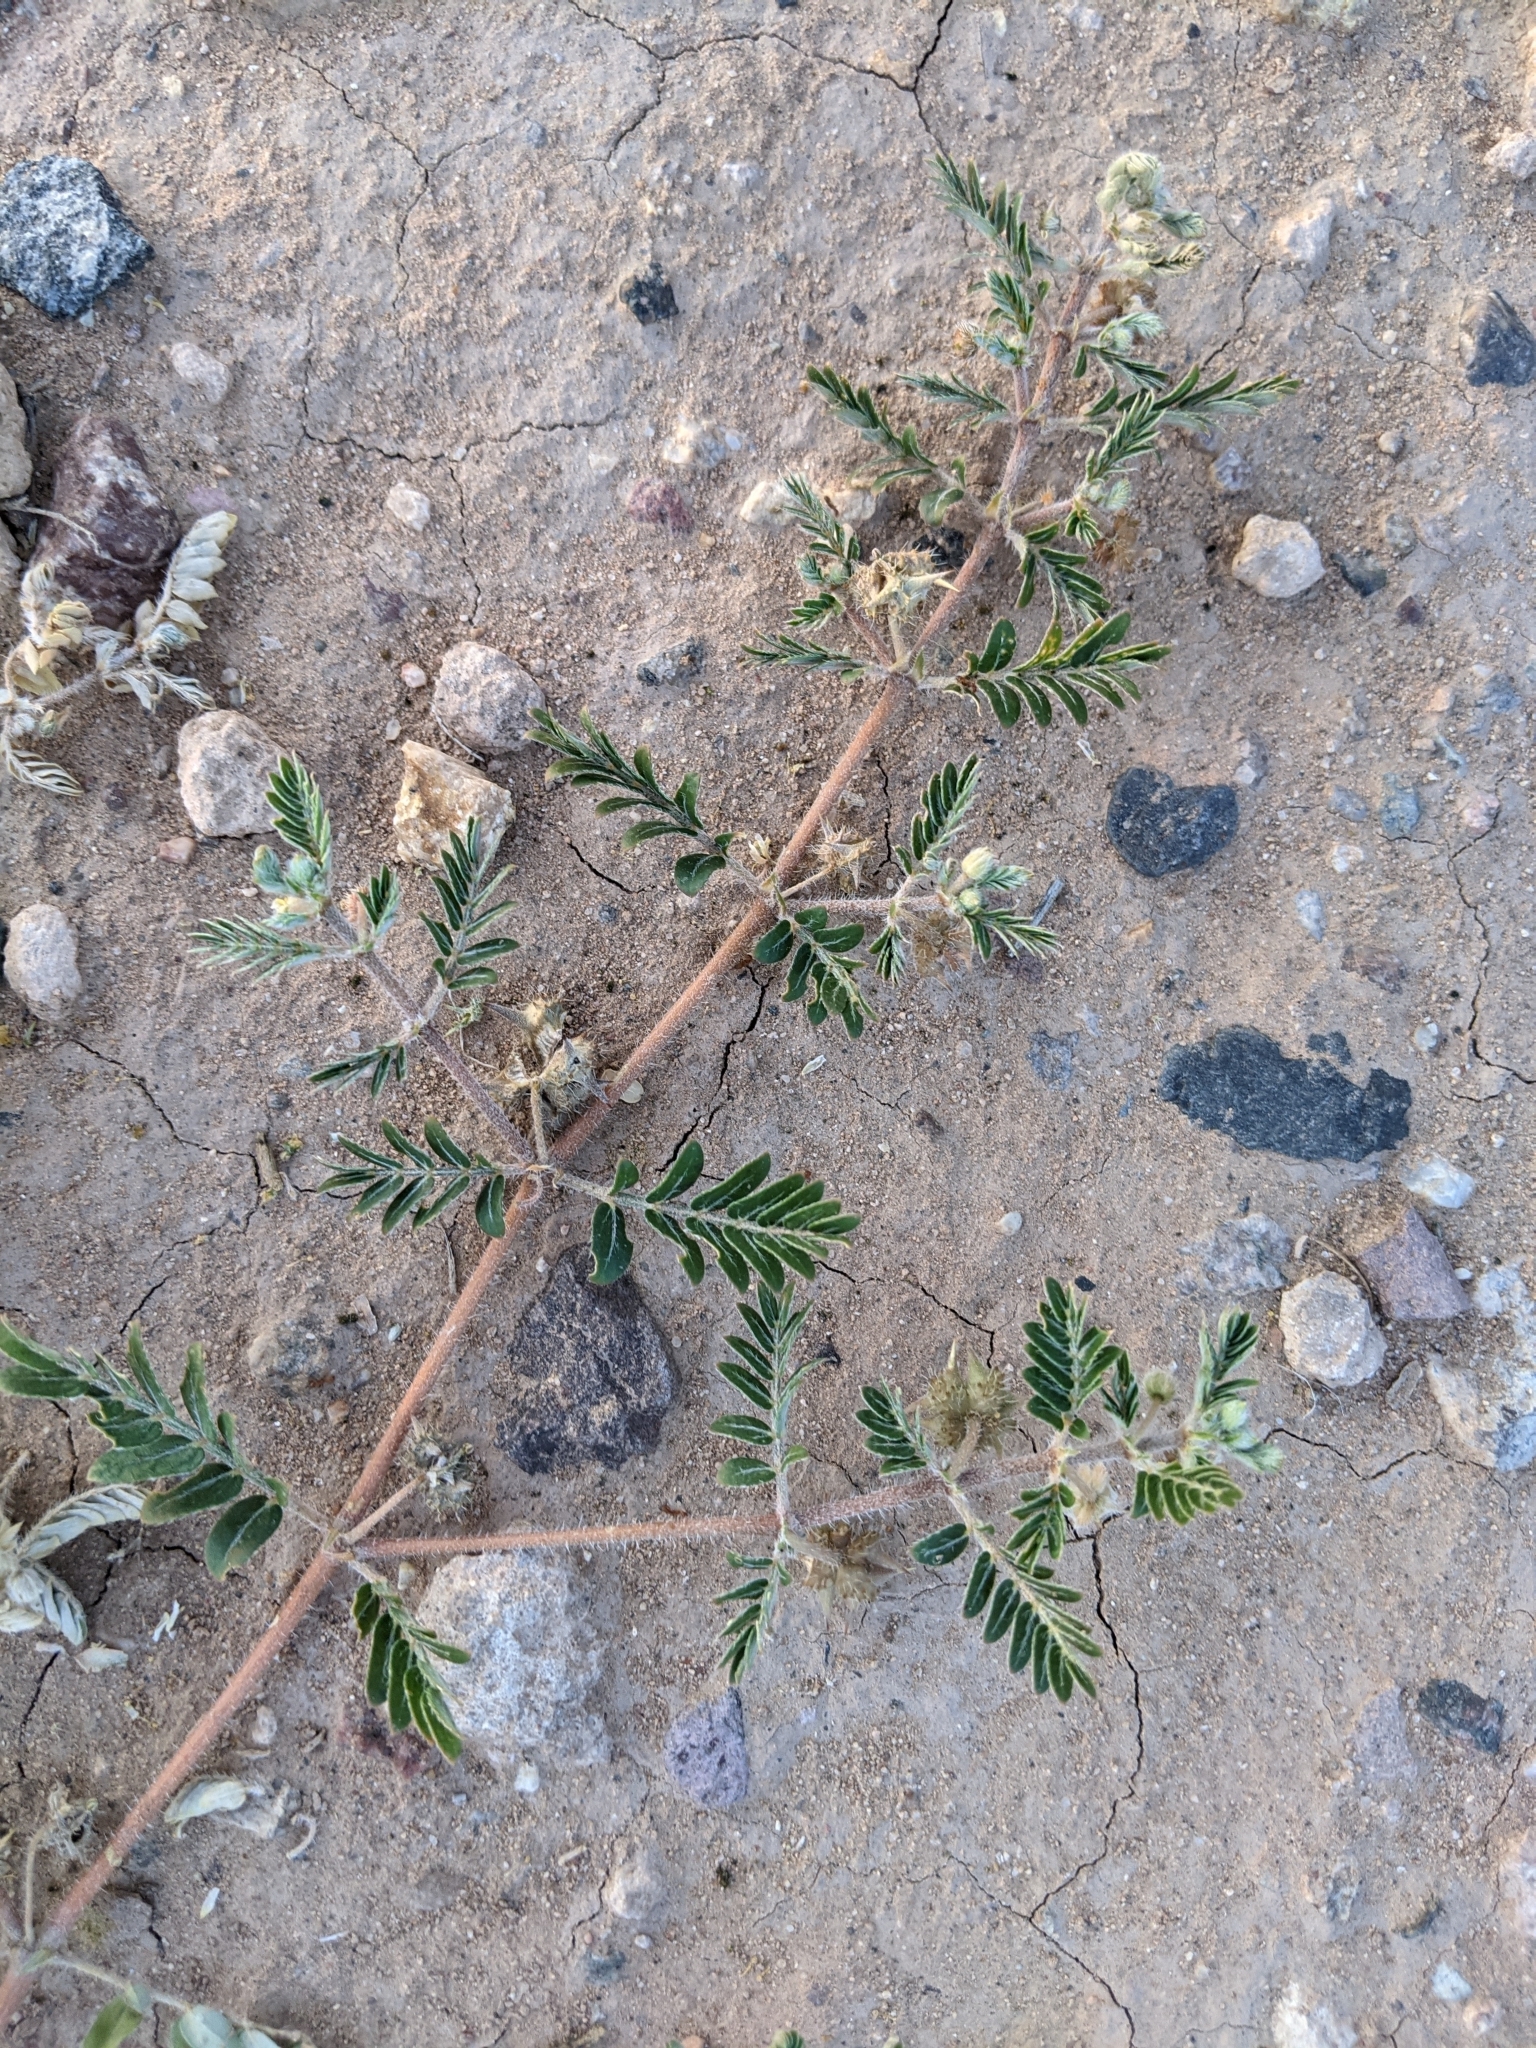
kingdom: Plantae
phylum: Tracheophyta
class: Magnoliopsida
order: Zygophyllales
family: Zygophyllaceae
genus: Tribulus
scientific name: Tribulus terrestris
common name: Puncturevine
